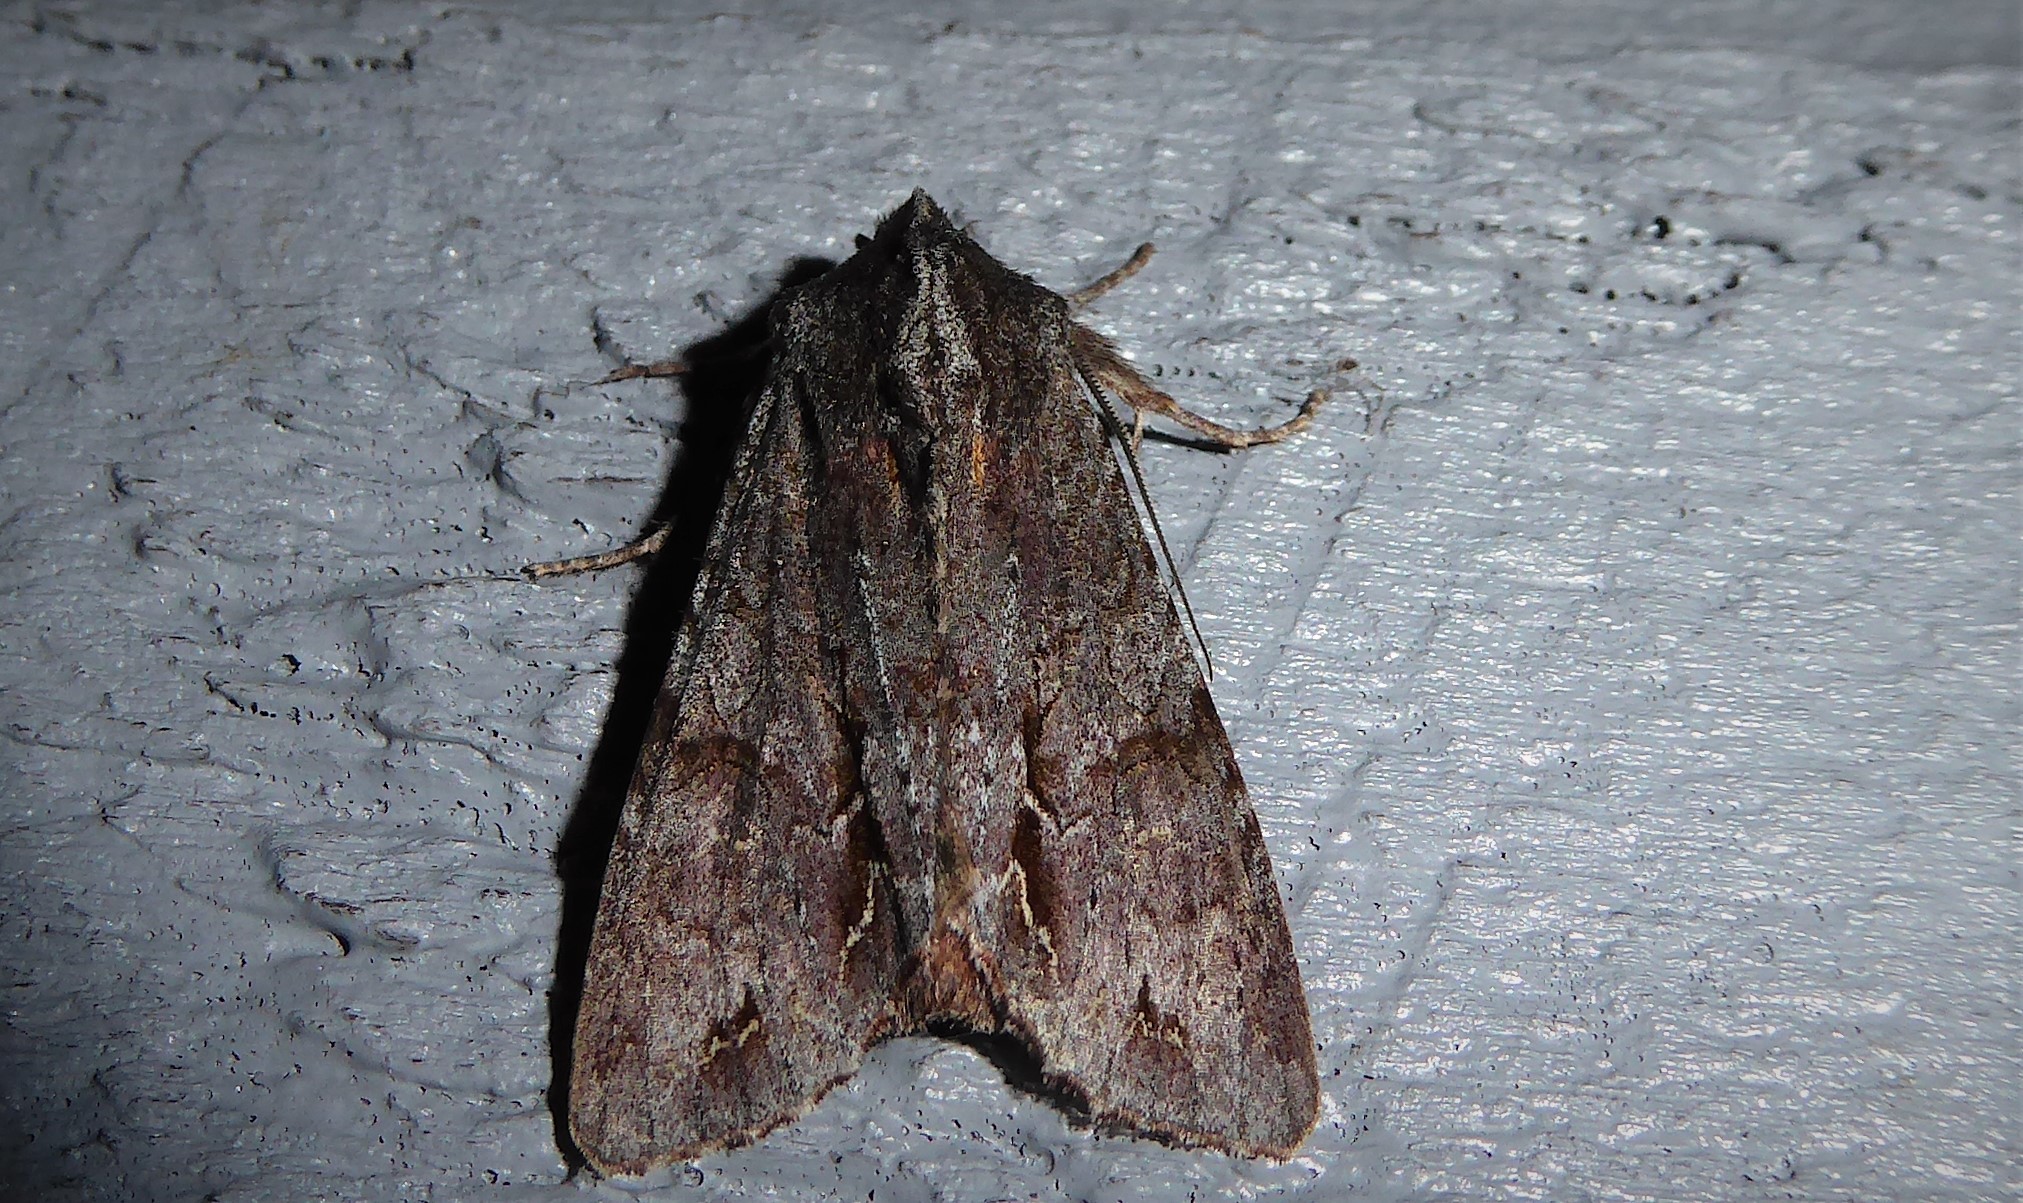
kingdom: Animalia
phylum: Arthropoda
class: Insecta
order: Lepidoptera
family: Noctuidae
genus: Ichneutica
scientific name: Ichneutica
